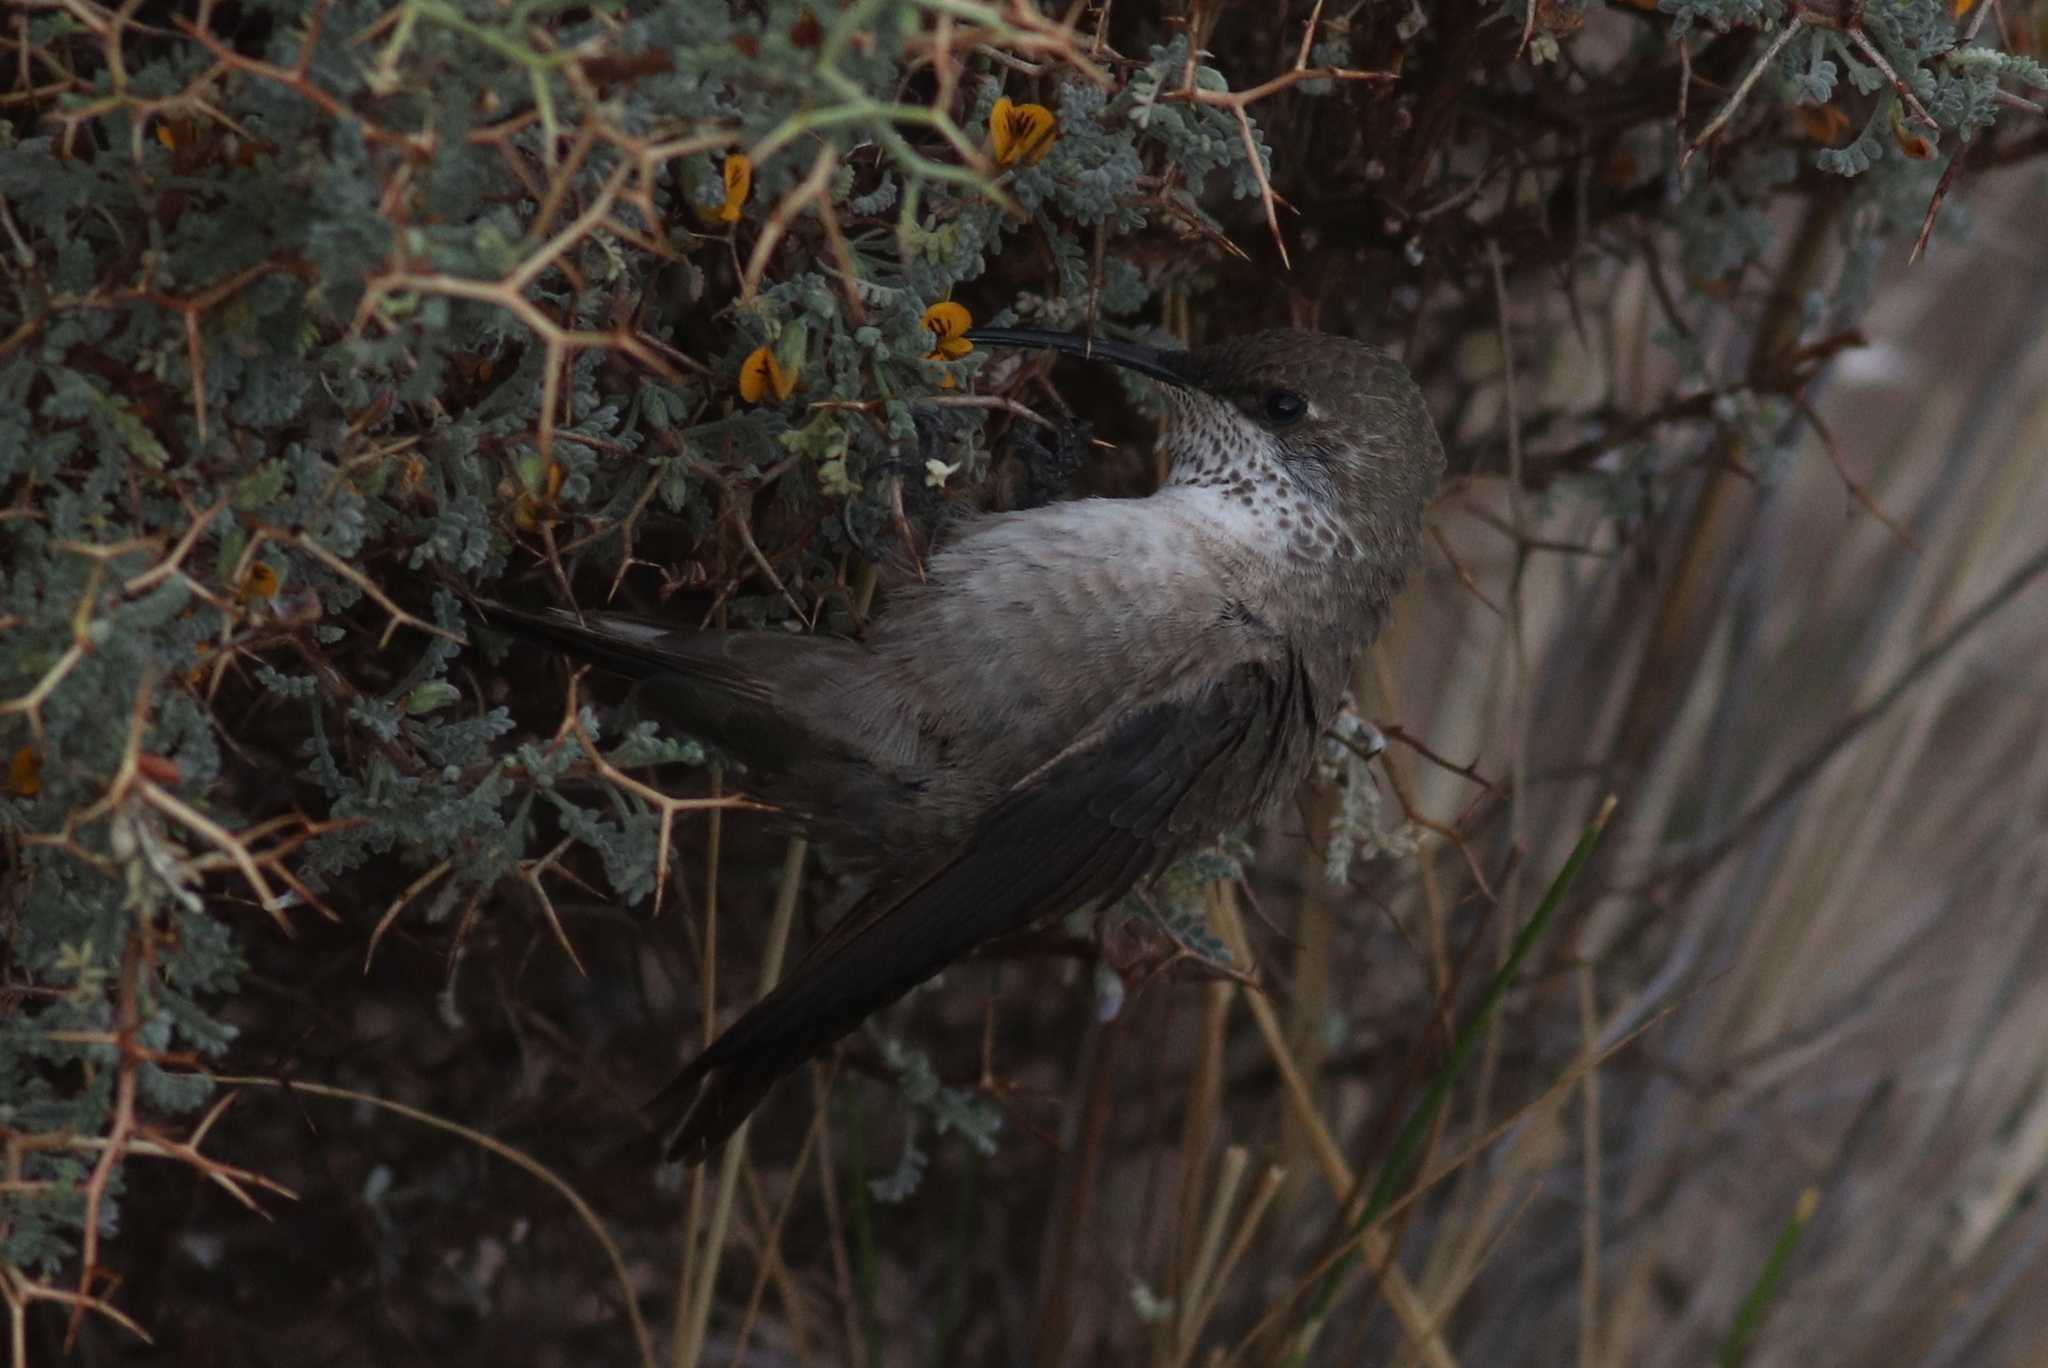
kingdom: Animalia
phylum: Chordata
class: Aves
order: Apodiformes
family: Trochilidae
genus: Oreotrochilus
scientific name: Oreotrochilus estella
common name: Andean hillstar
